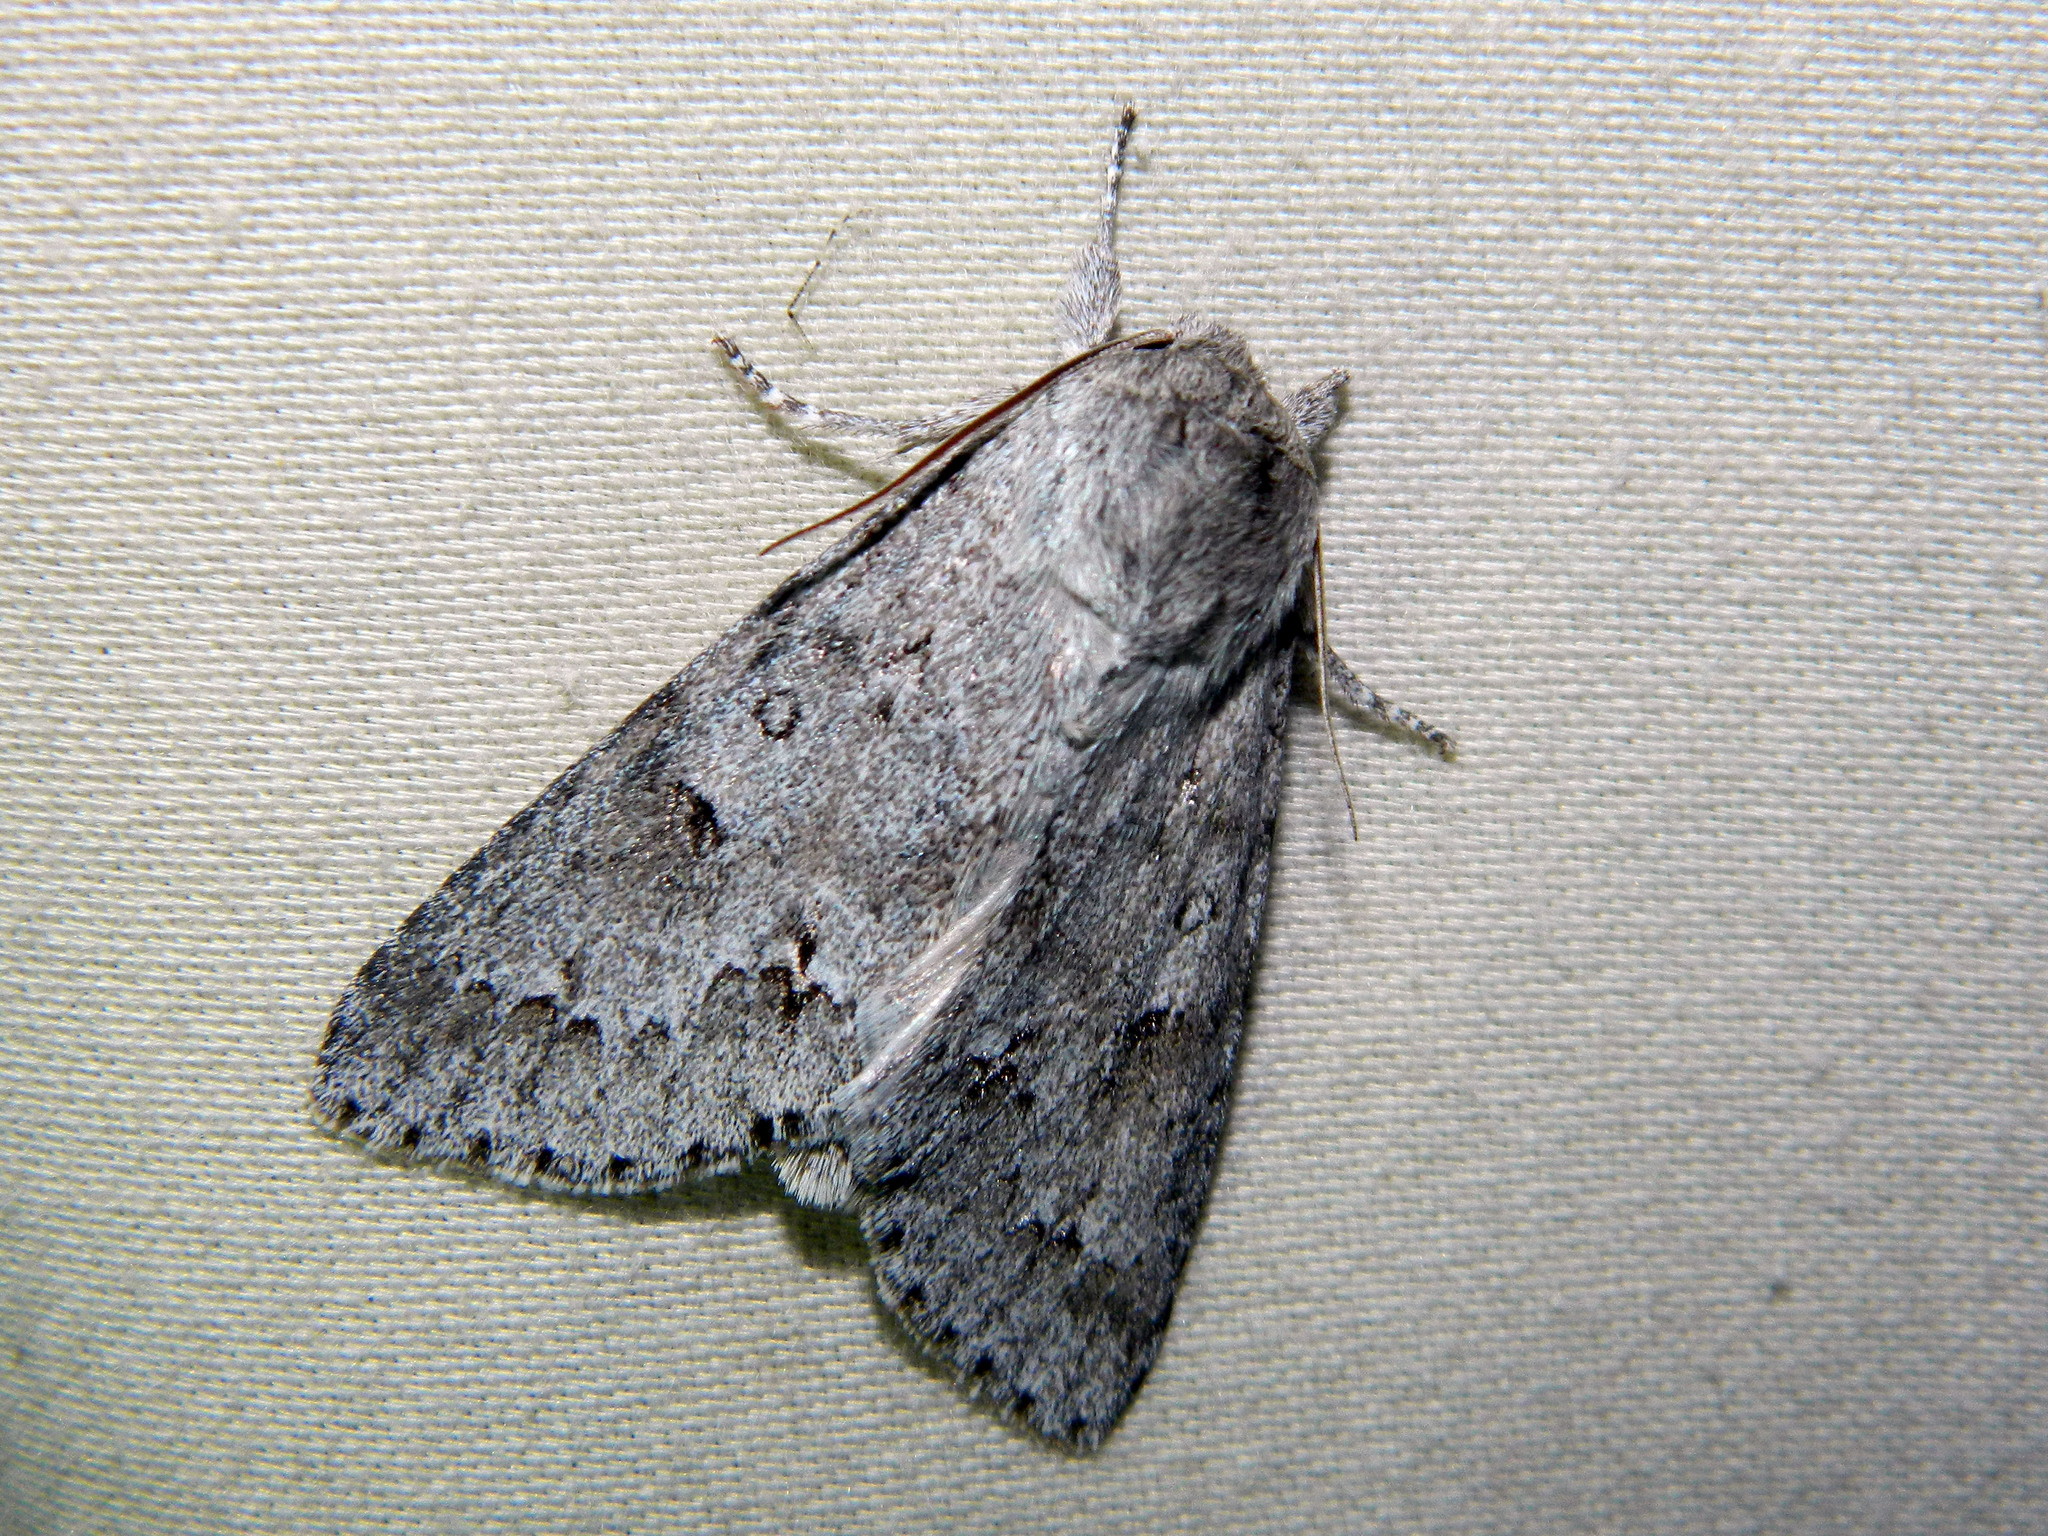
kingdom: Animalia
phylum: Arthropoda
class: Insecta
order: Lepidoptera
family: Noctuidae
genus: Acronicta
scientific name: Acronicta insita
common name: Large gray dagger
